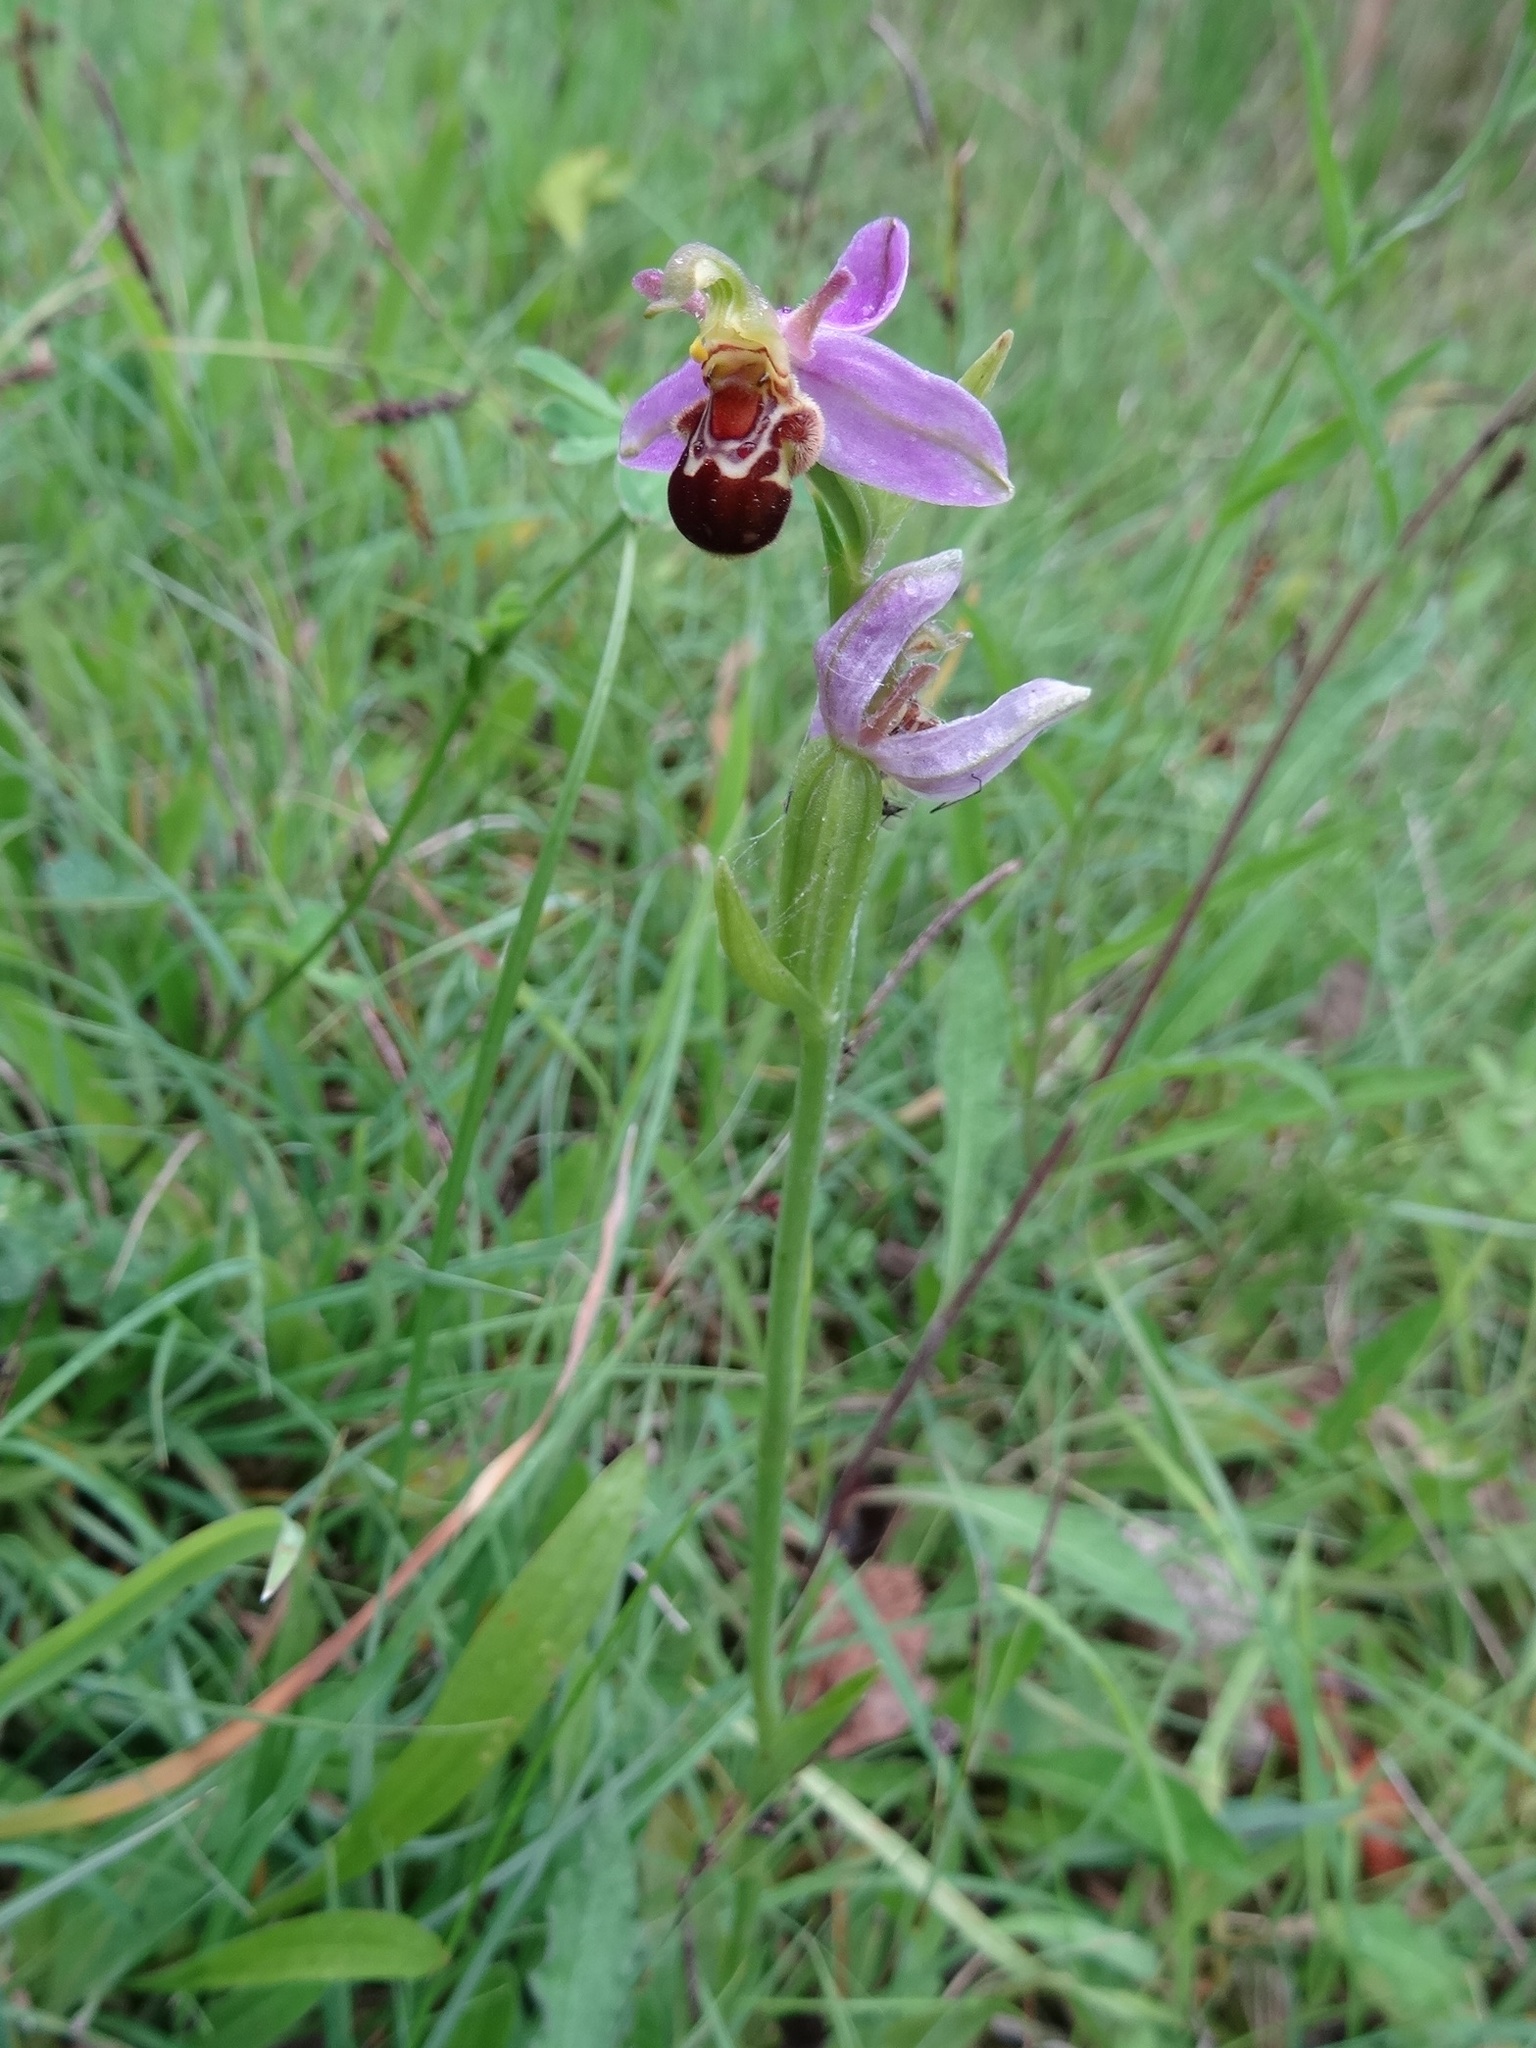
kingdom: Plantae
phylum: Tracheophyta
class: Liliopsida
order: Asparagales
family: Orchidaceae
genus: Ophrys
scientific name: Ophrys apifera
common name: Bee orchid
